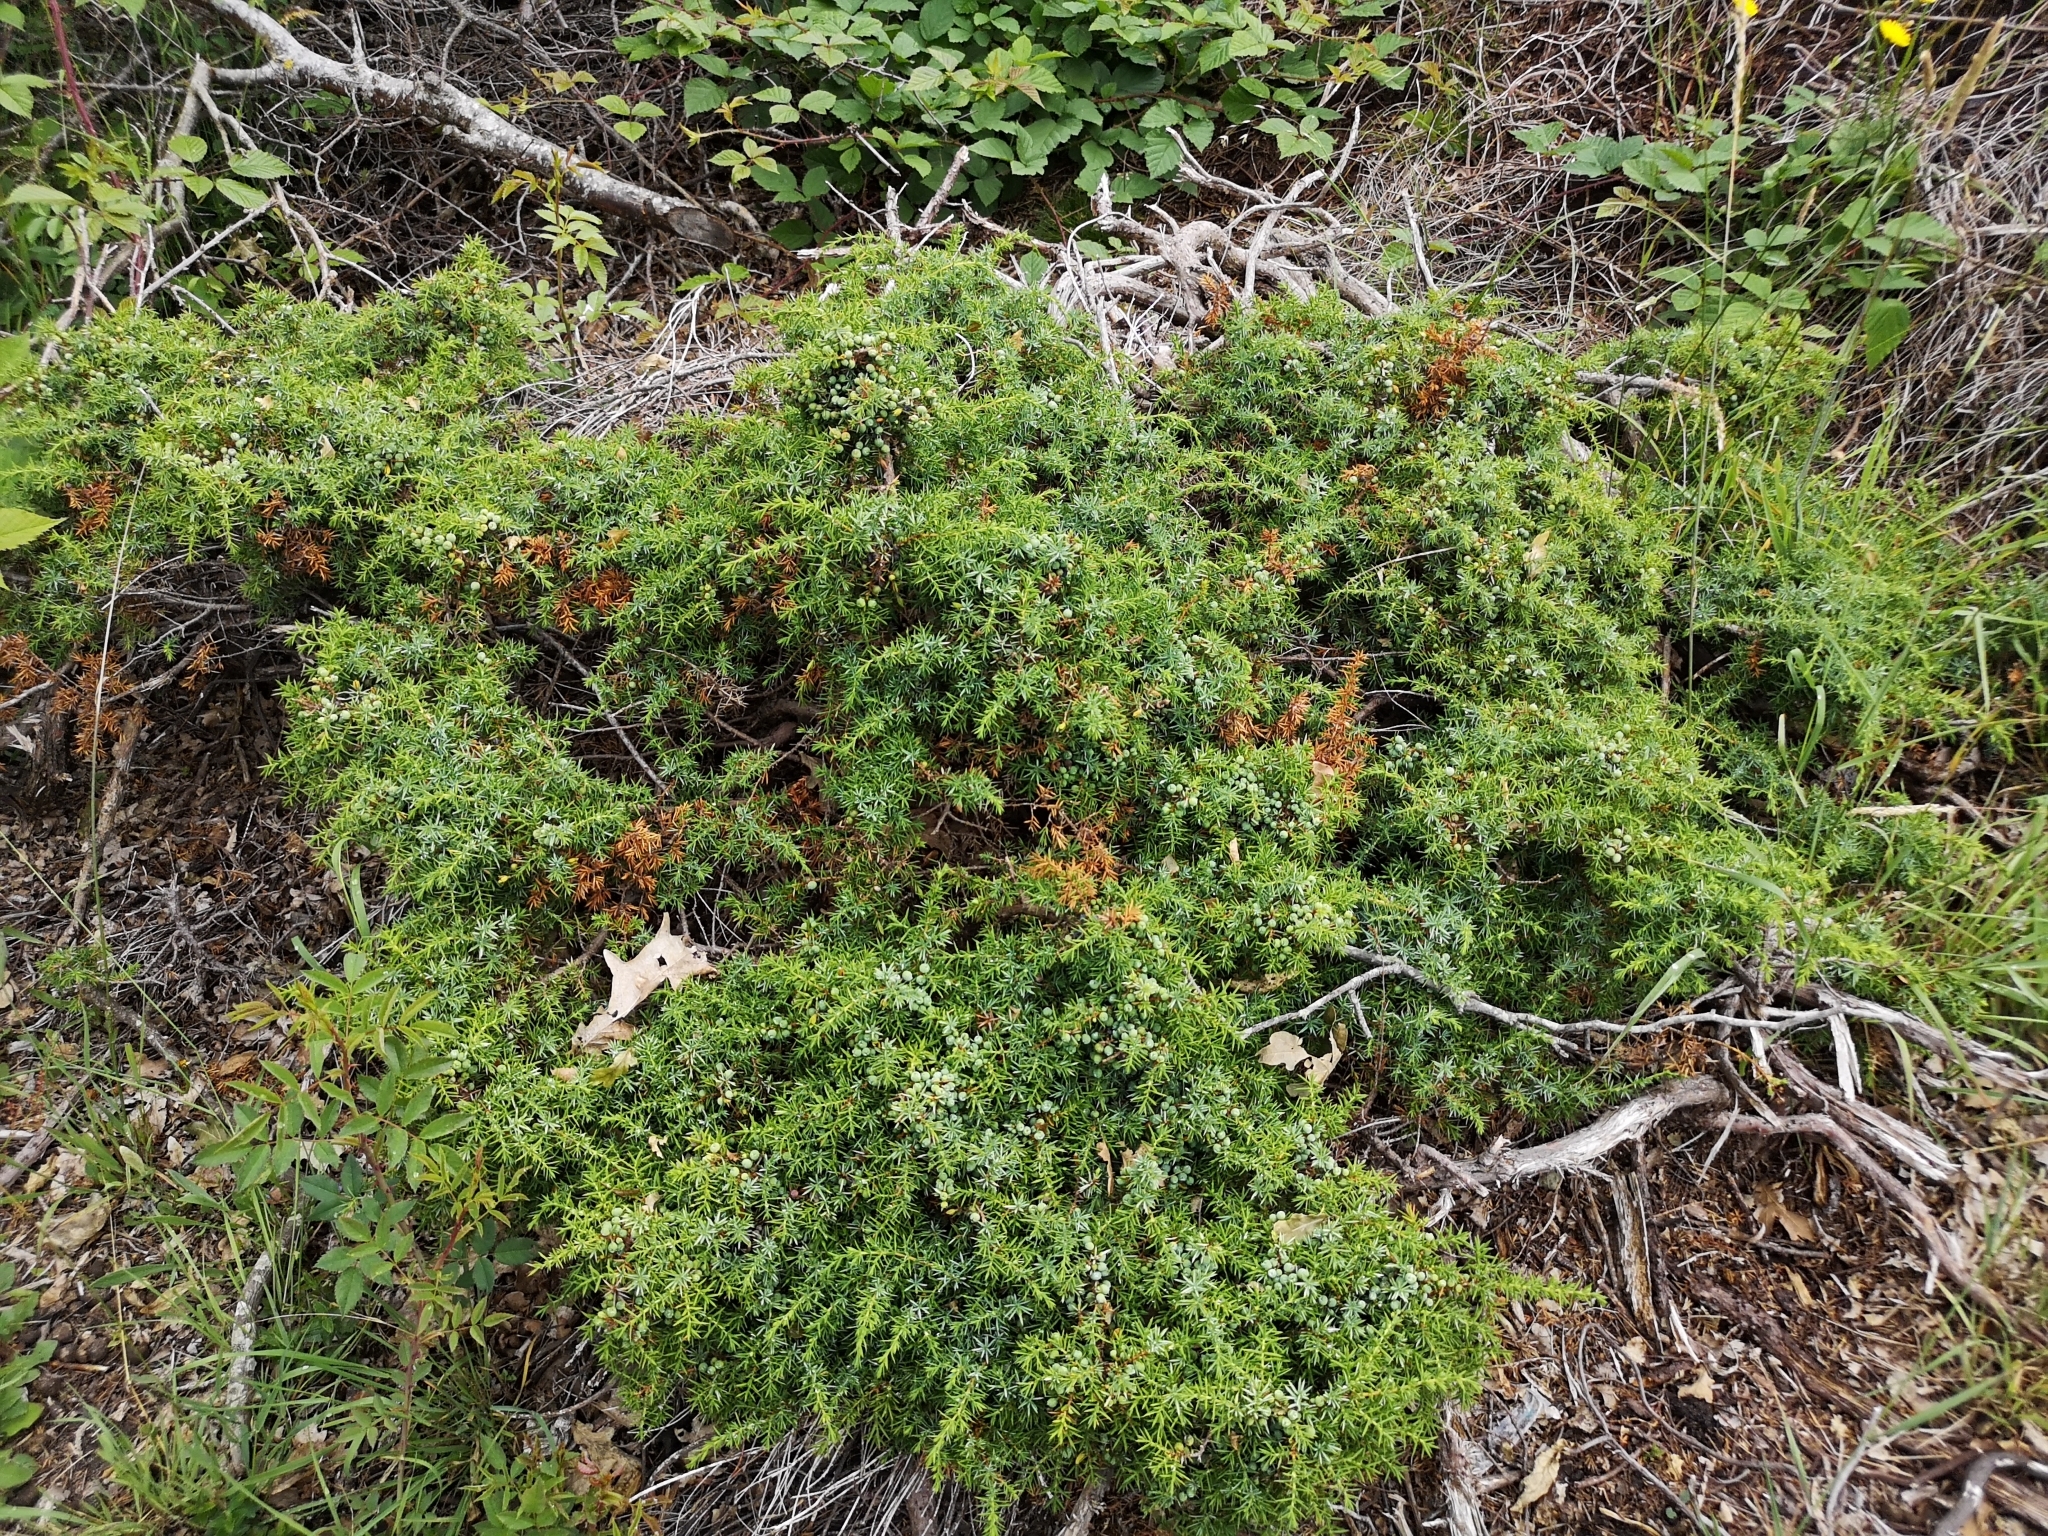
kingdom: Plantae
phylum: Tracheophyta
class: Pinopsida
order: Pinales
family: Cupressaceae
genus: Juniperus
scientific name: Juniperus communis
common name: Common juniper
